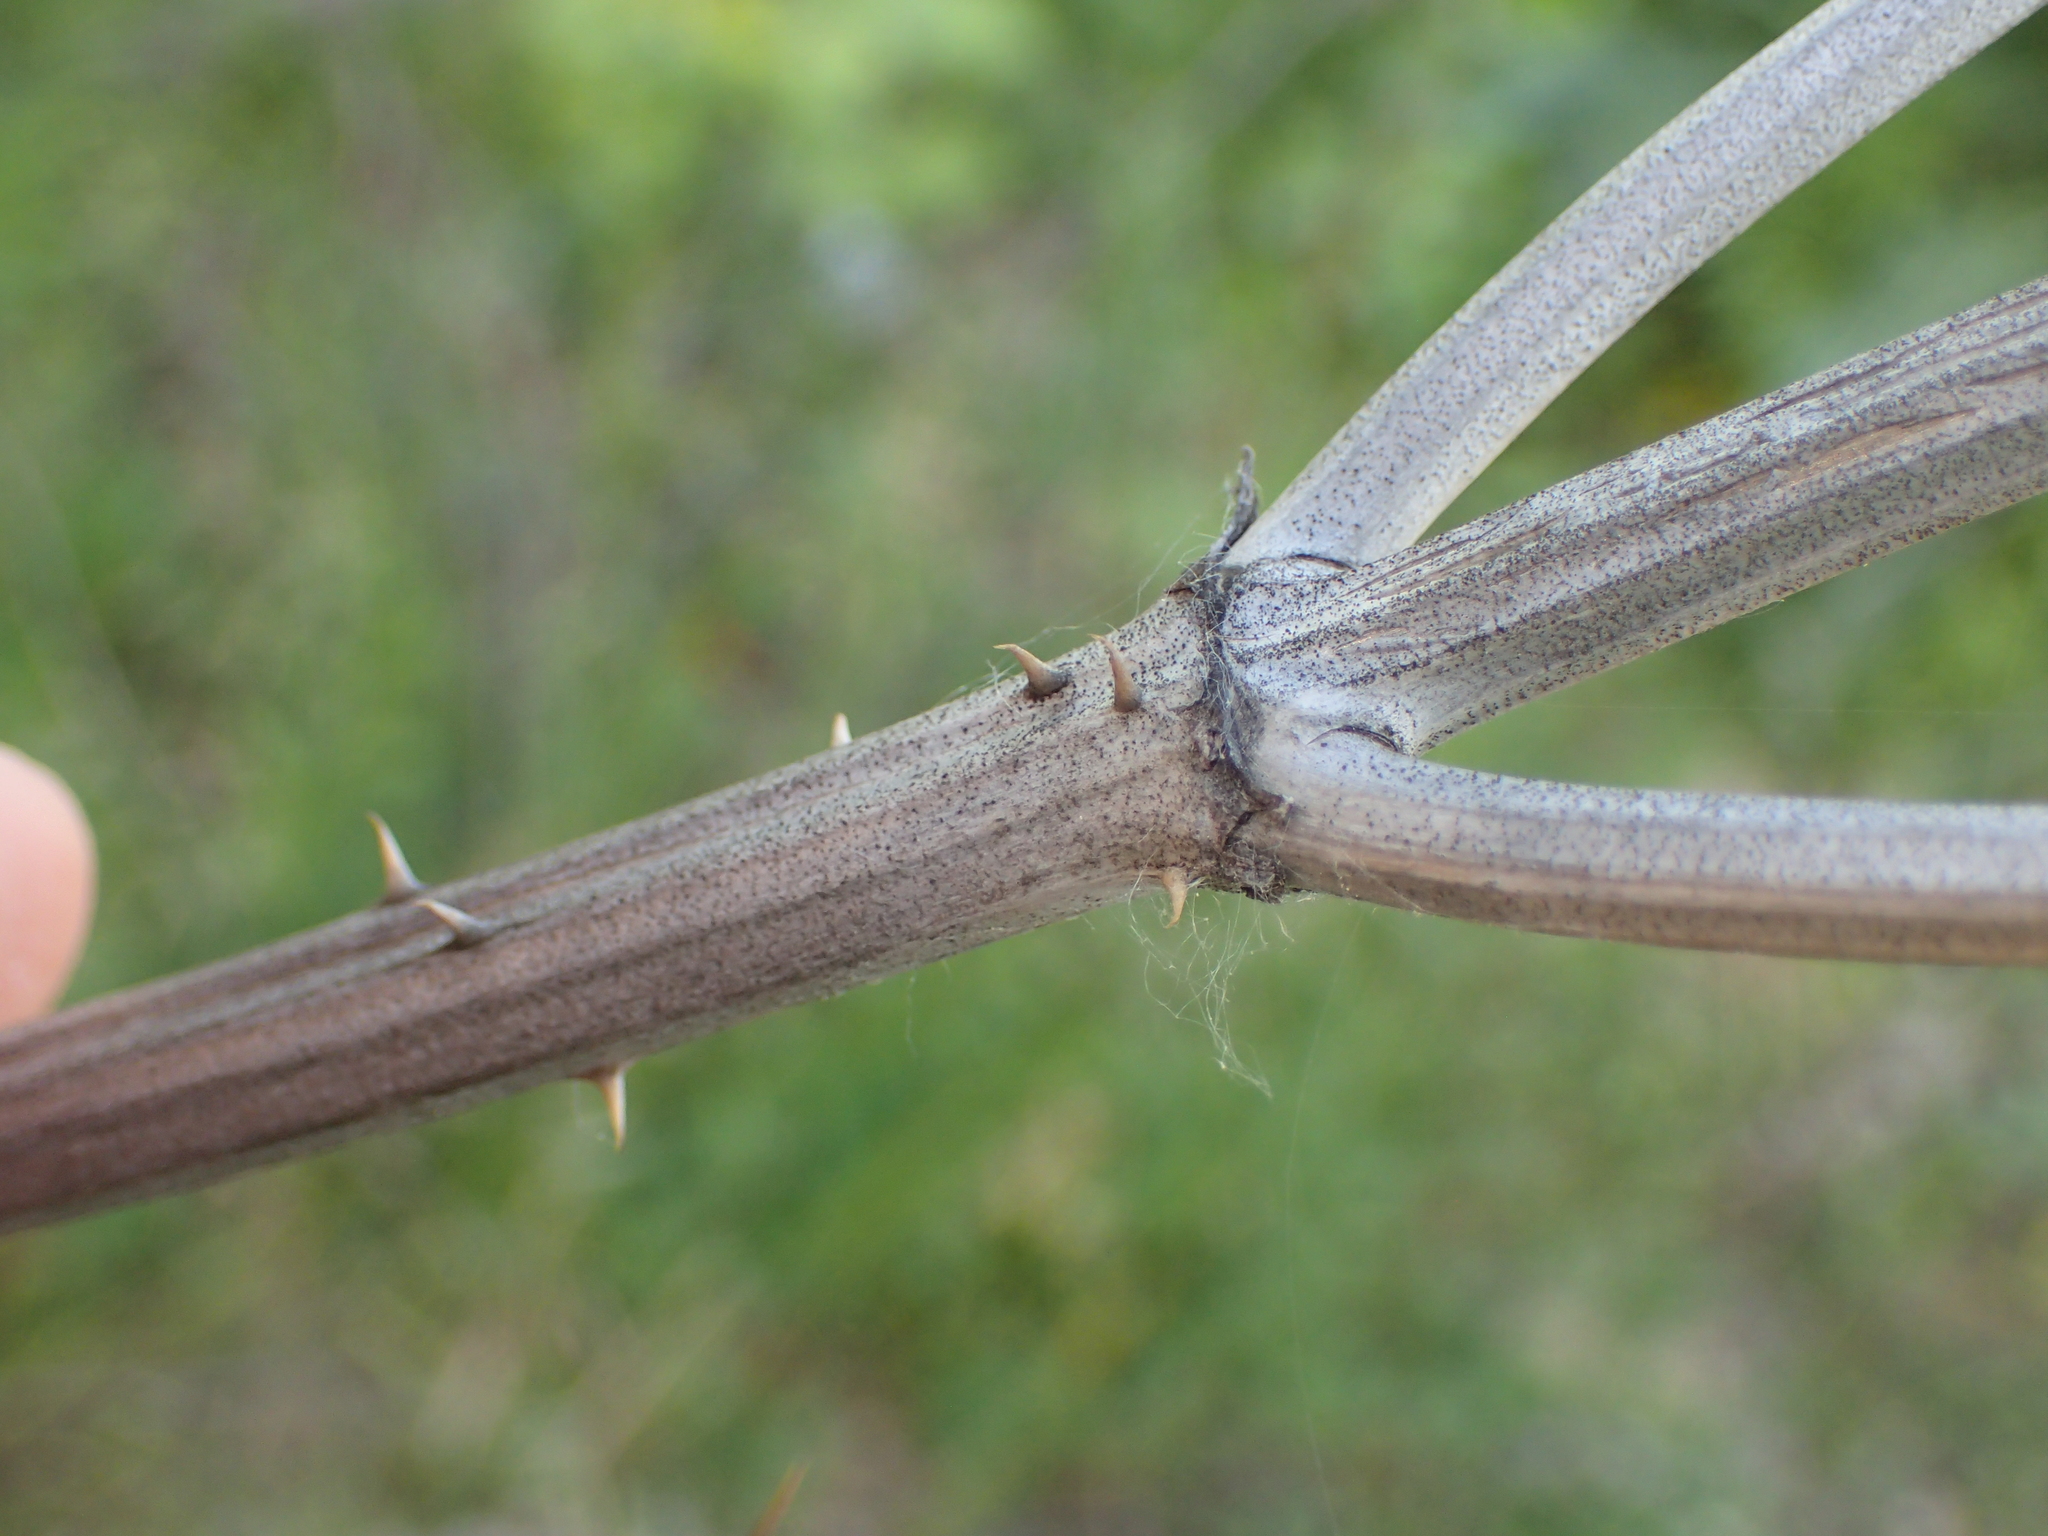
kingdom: Plantae
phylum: Tracheophyta
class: Magnoliopsida
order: Dipsacales
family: Caprifoliaceae
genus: Dipsacus
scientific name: Dipsacus fullonum
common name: Teasel
